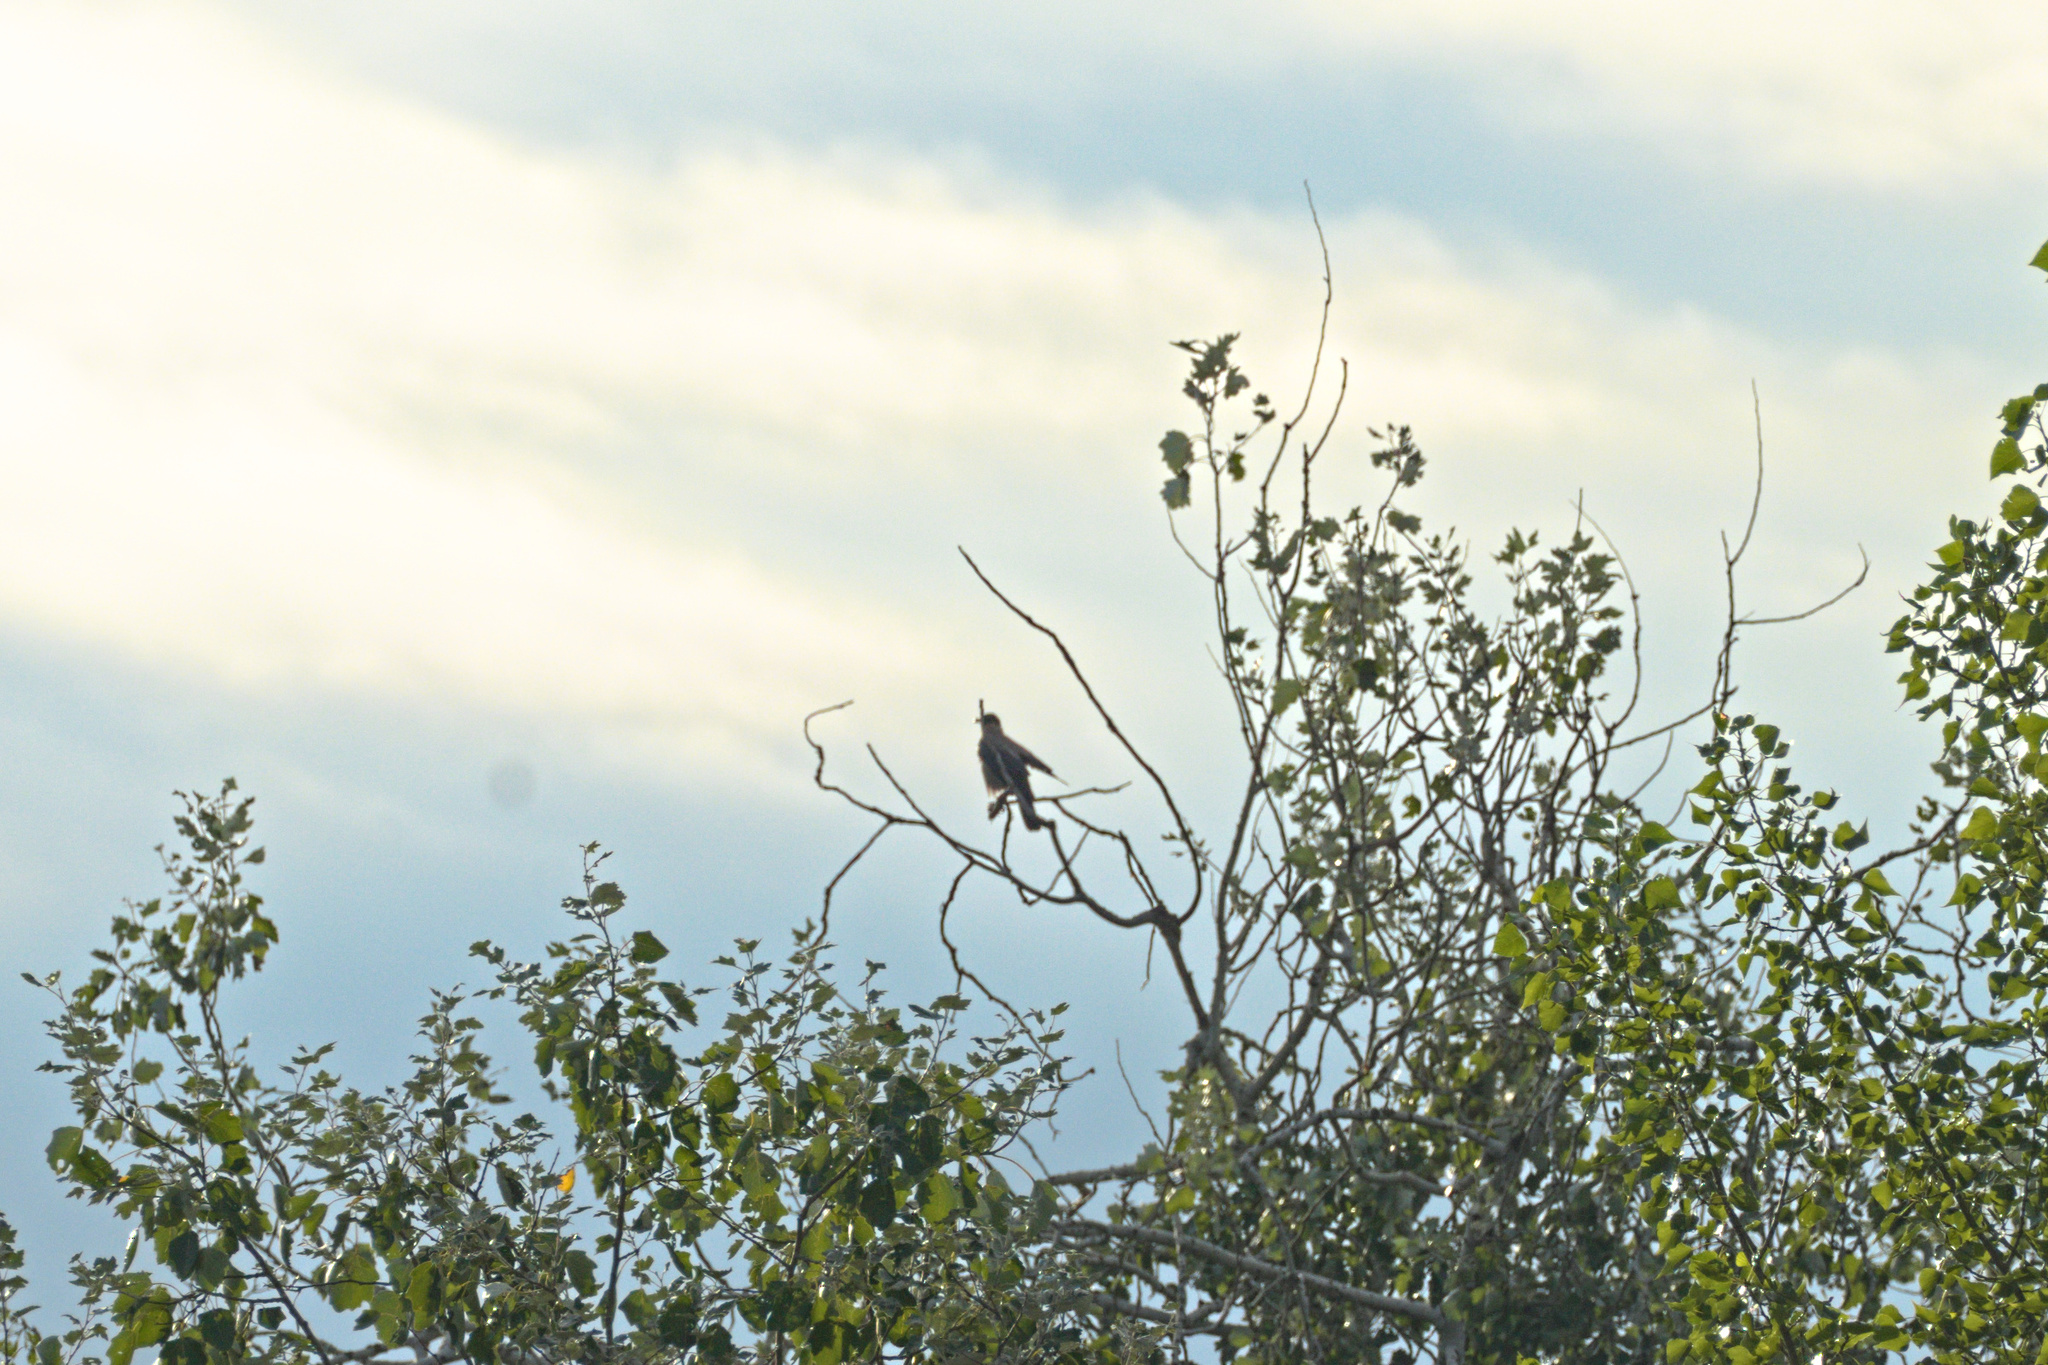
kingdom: Animalia
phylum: Chordata
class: Aves
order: Passeriformes
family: Corvidae
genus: Corvus
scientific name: Corvus cornix
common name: Hooded crow
